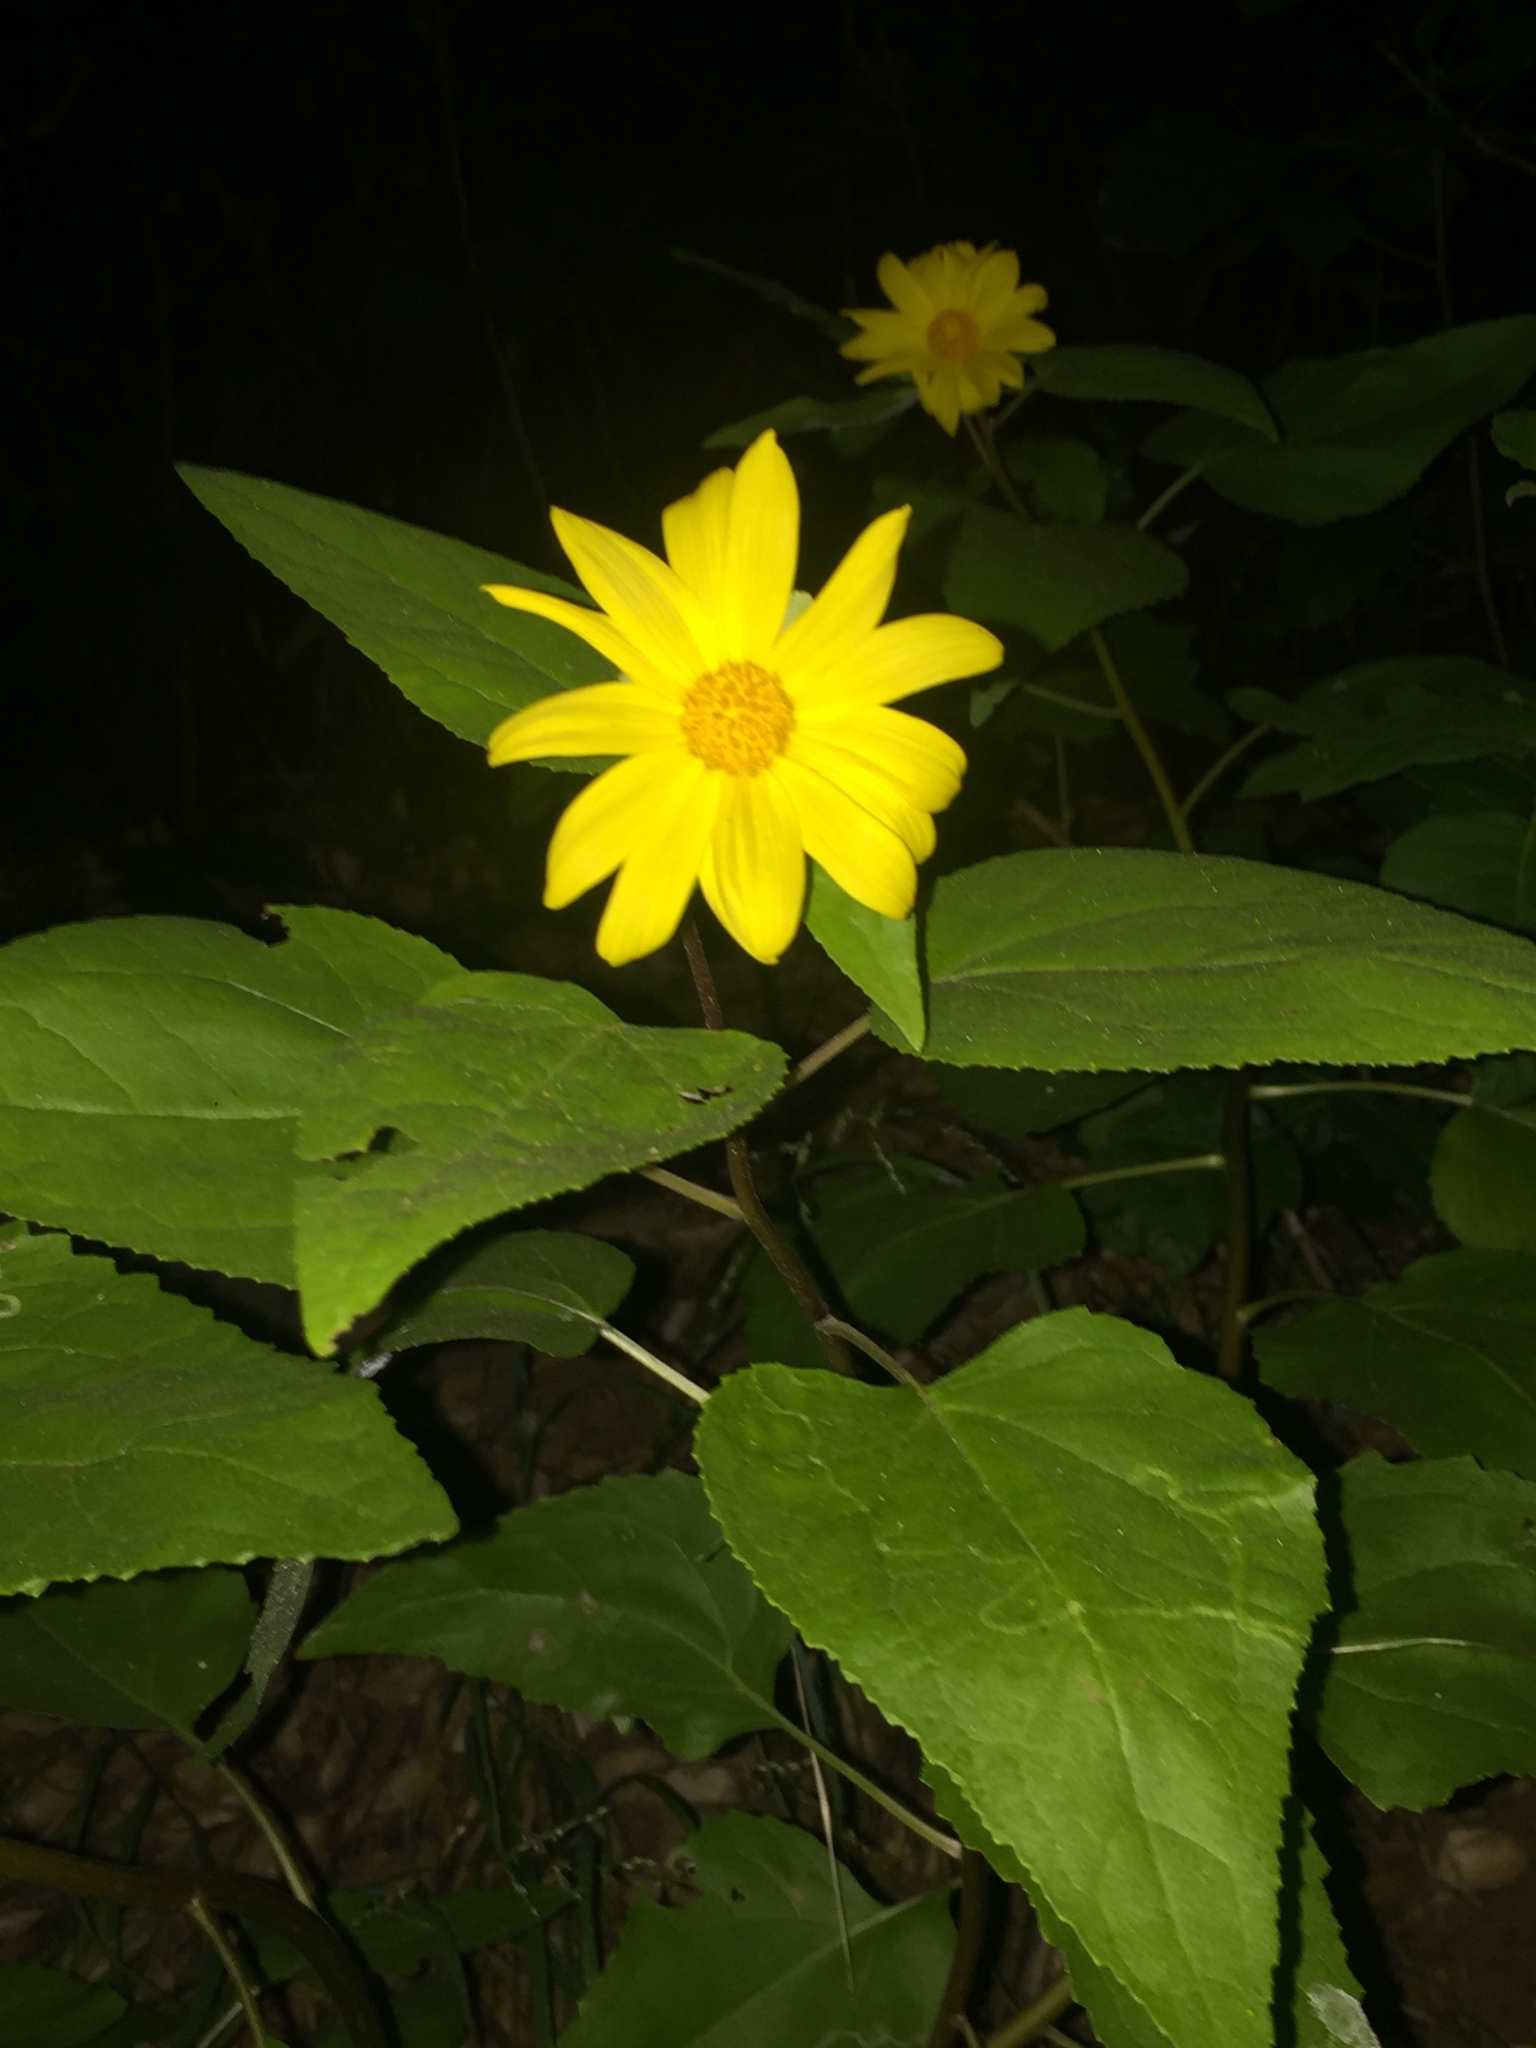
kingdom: Plantae
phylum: Tracheophyta
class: Magnoliopsida
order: Asterales
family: Asteraceae
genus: Venegasia
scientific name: Venegasia carpesioides
